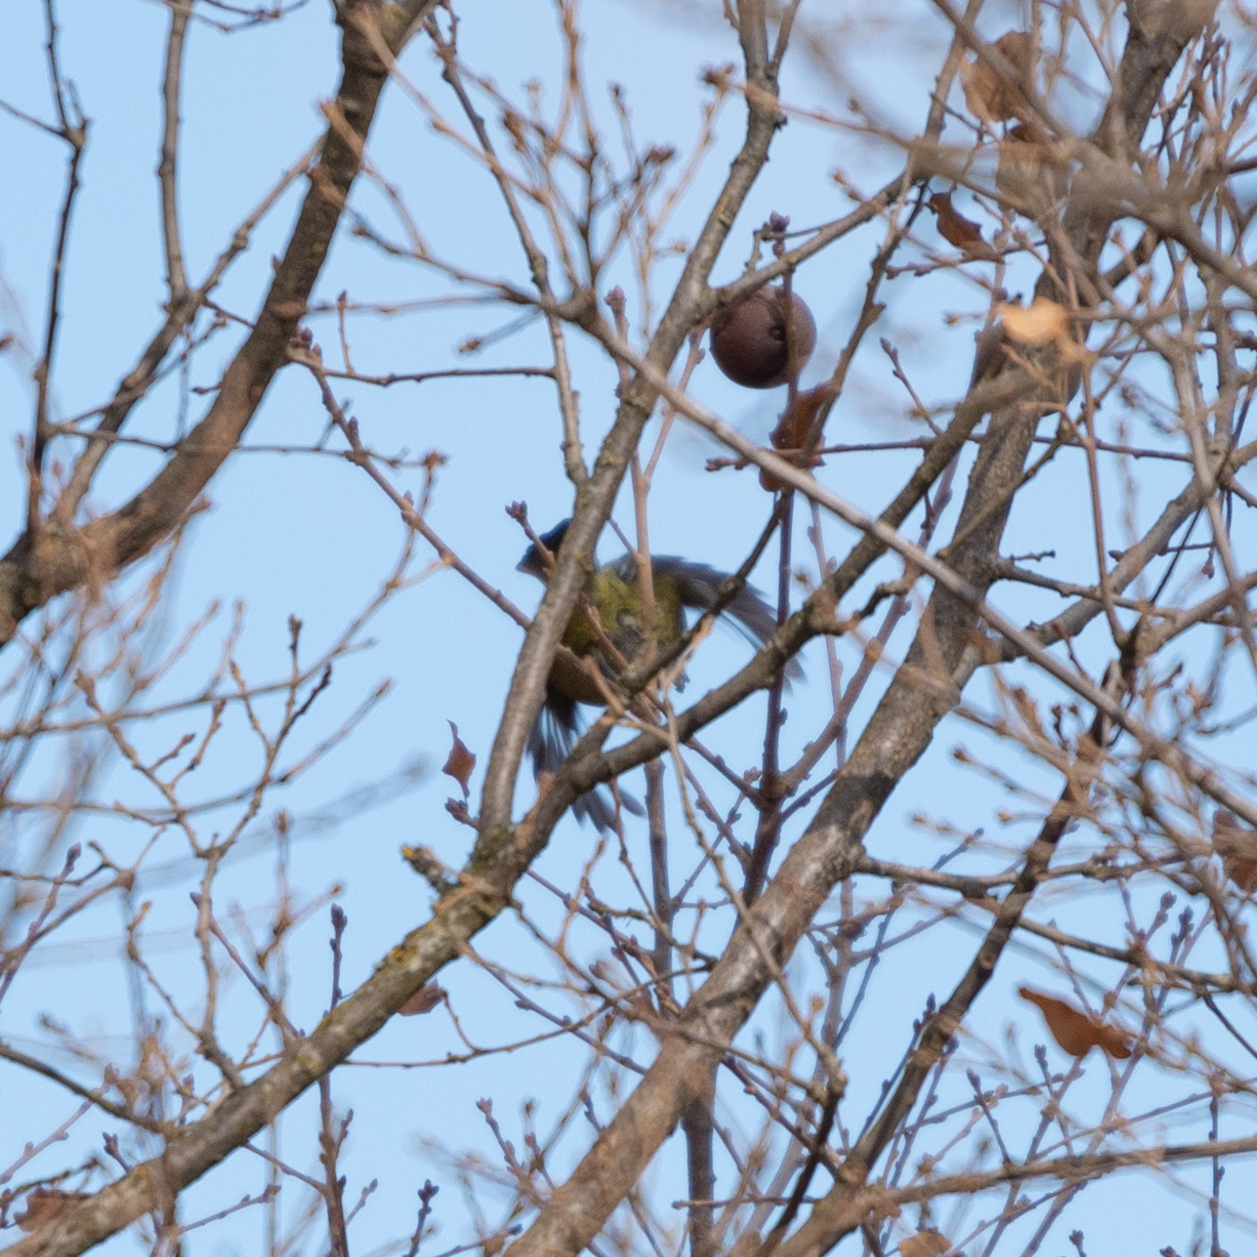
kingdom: Animalia
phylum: Chordata
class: Aves
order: Passeriformes
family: Paridae
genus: Cyanistes
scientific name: Cyanistes caeruleus
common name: Eurasian blue tit
